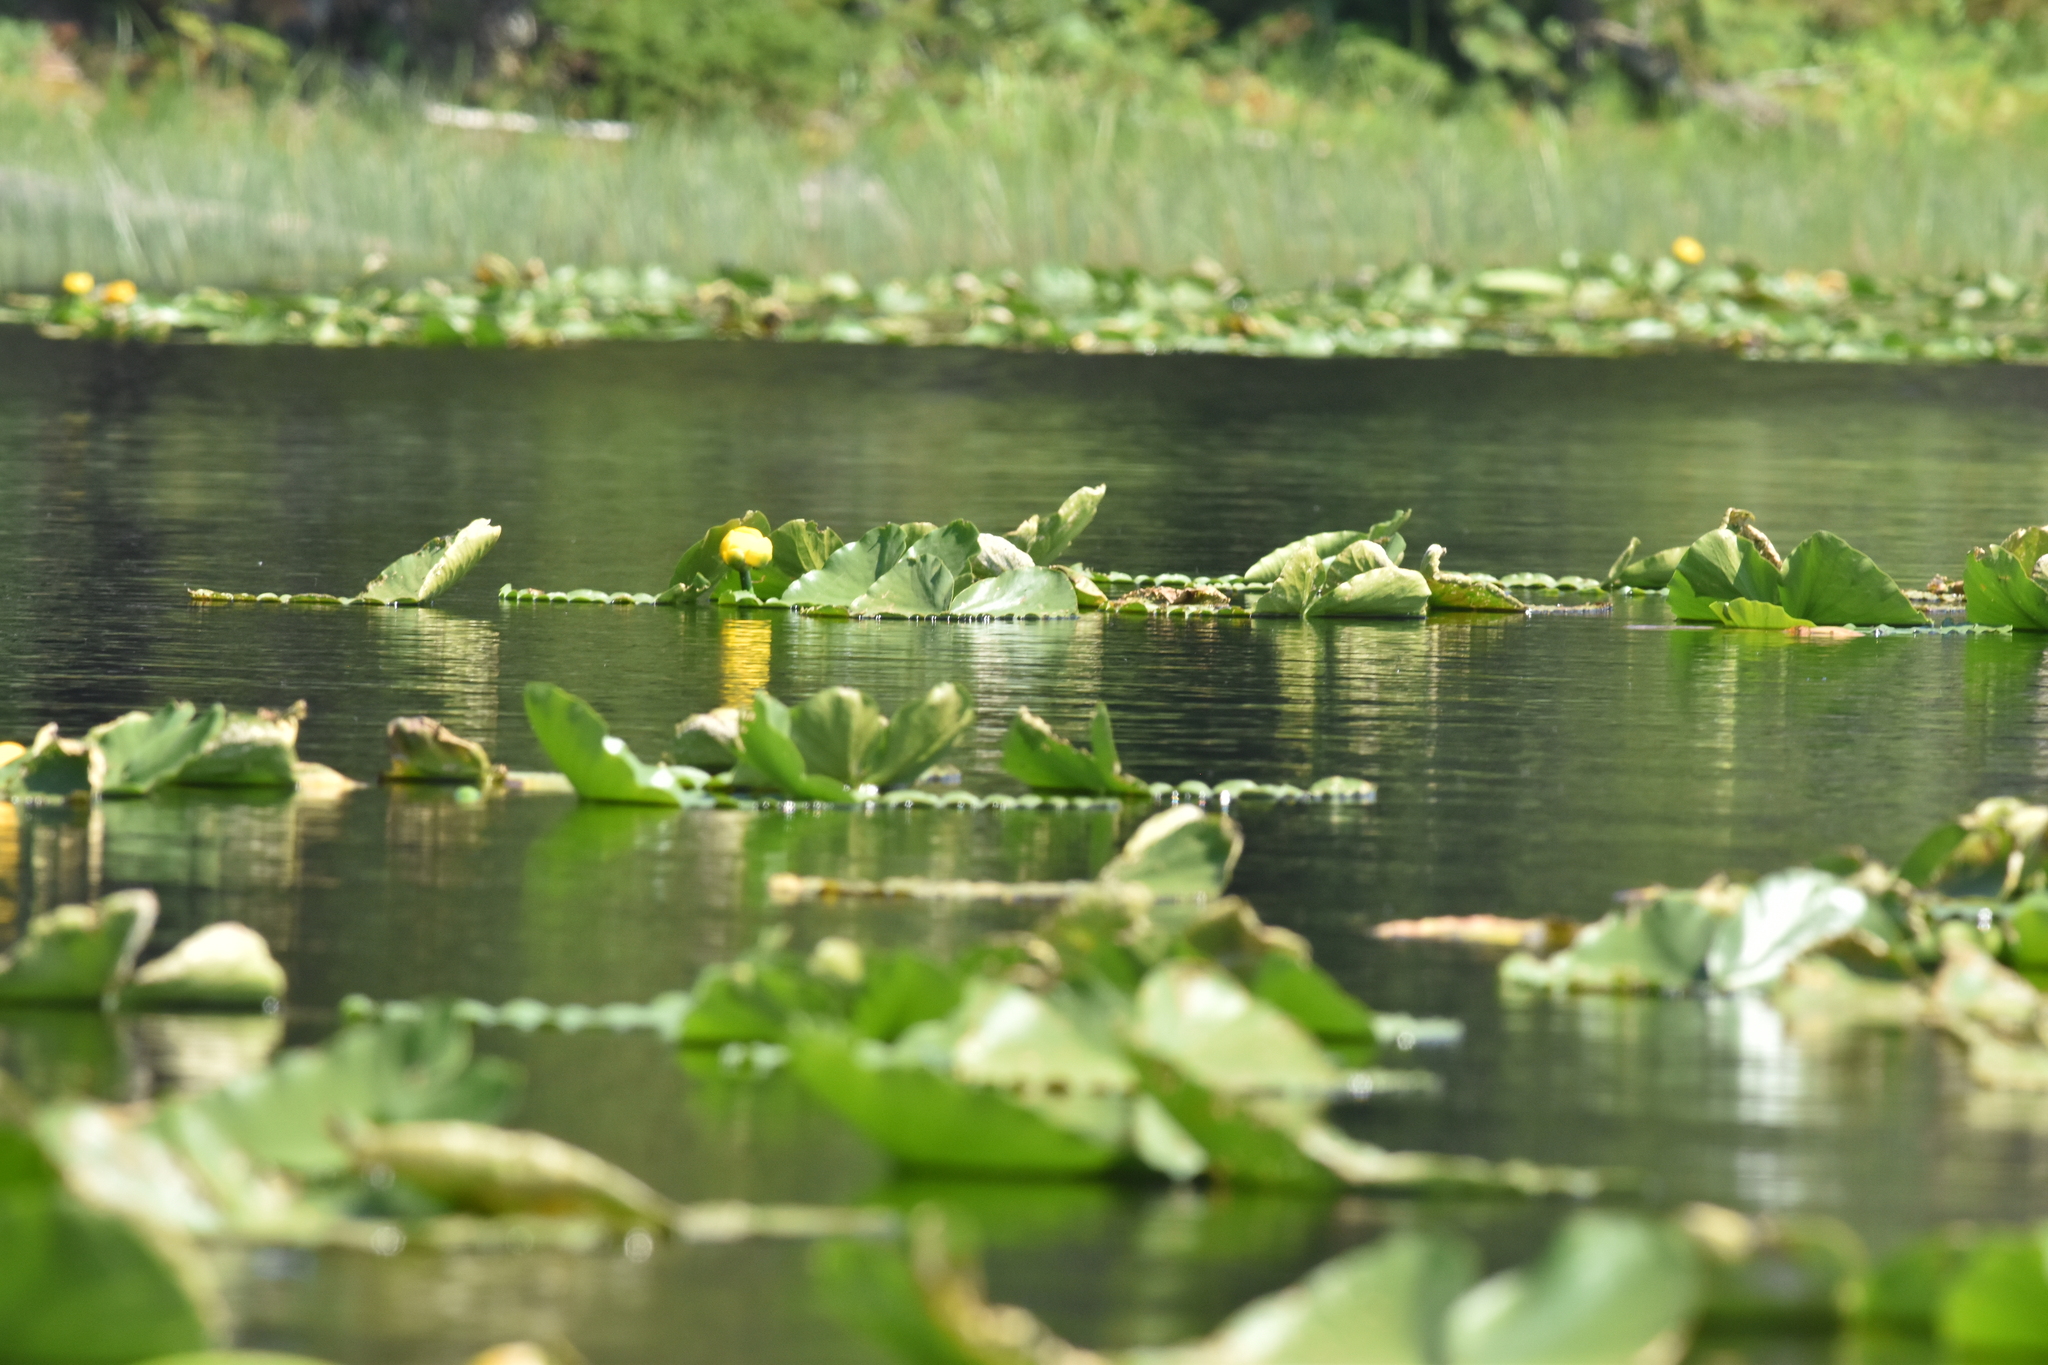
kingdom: Plantae
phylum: Tracheophyta
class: Magnoliopsida
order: Nymphaeales
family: Nymphaeaceae
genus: Nuphar
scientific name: Nuphar polysepala
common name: Rocky mountain cow-lily
